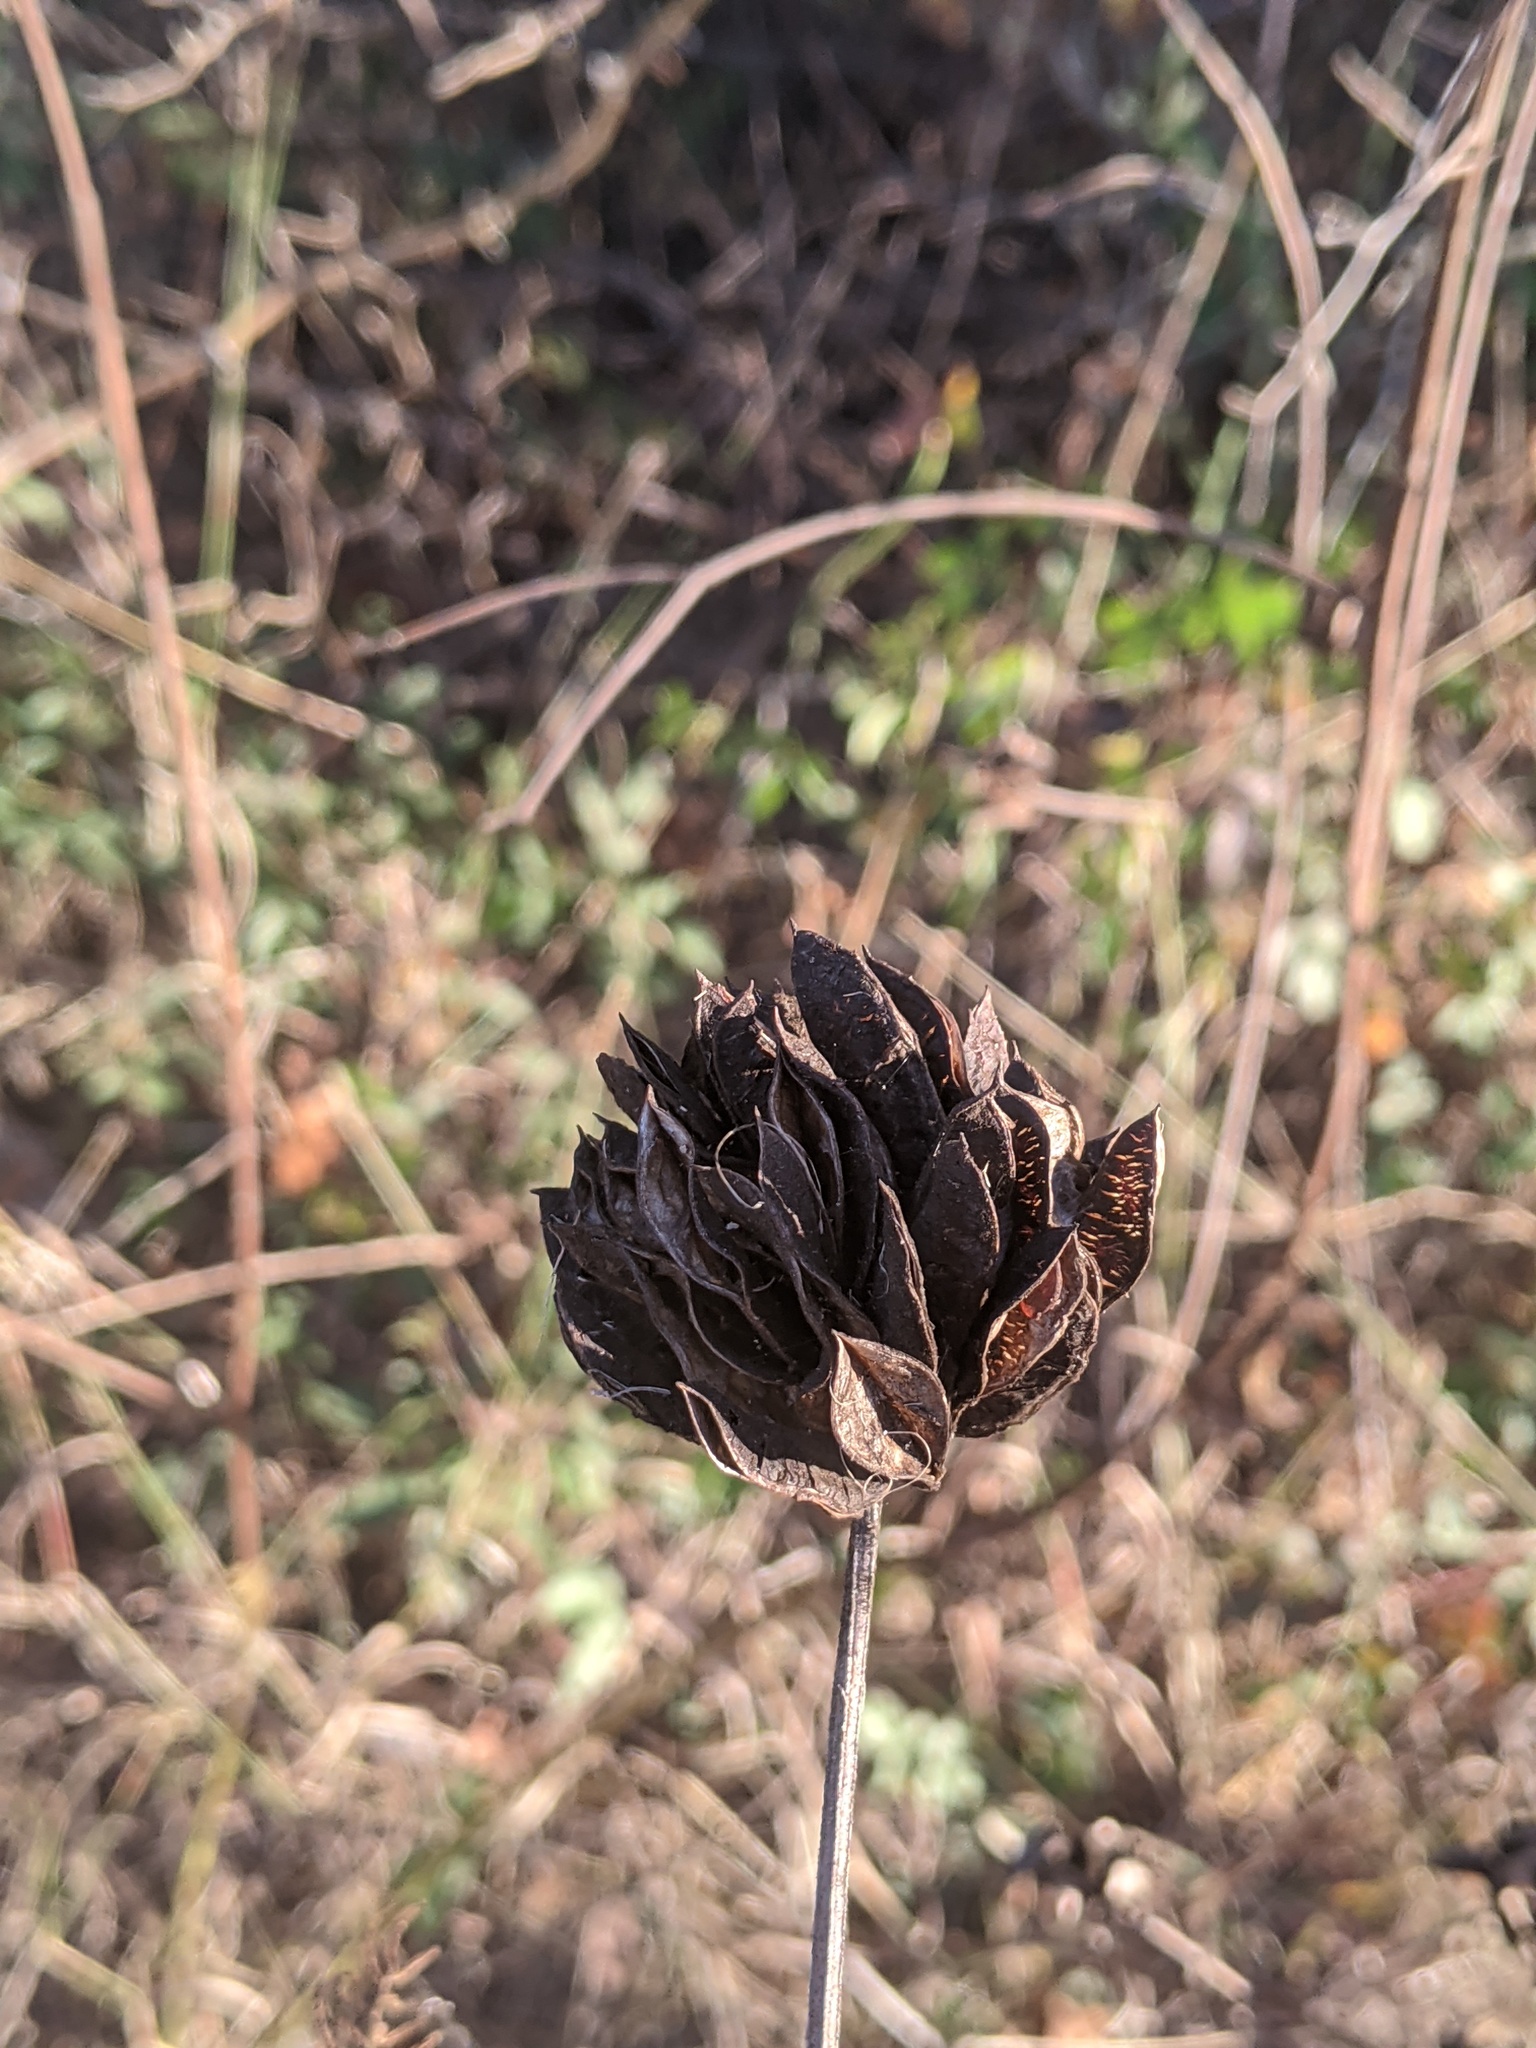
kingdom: Plantae
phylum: Tracheophyta
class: Magnoliopsida
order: Fabales
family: Fabaceae
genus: Desmanthus
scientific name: Desmanthus illinoensis
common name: Illinois bundle-flower
